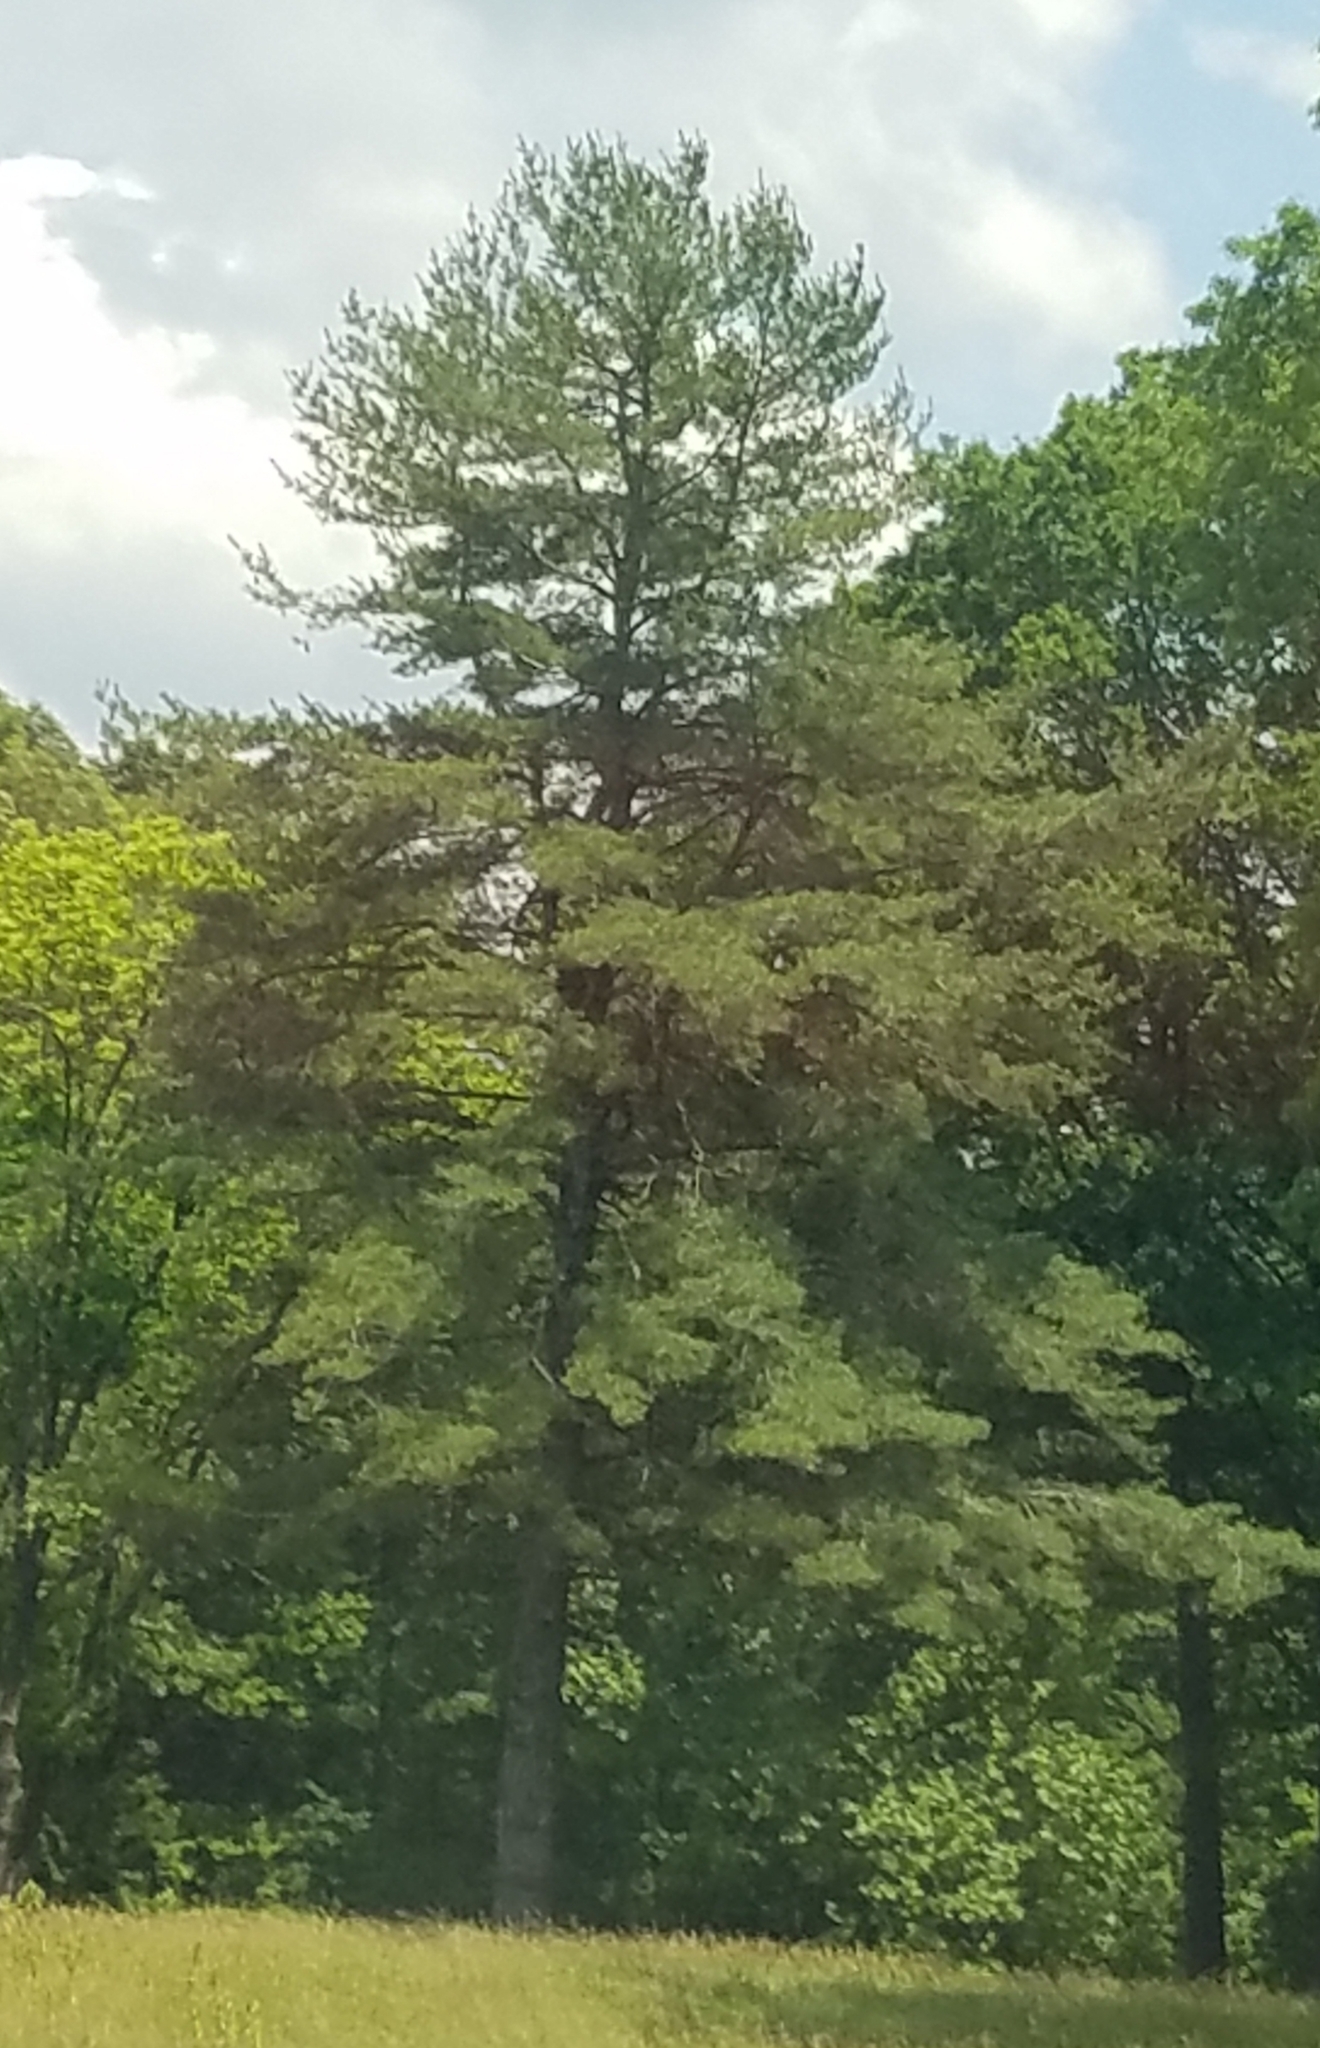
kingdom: Plantae
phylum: Tracheophyta
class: Pinopsida
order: Pinales
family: Pinaceae
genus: Pinus
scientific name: Pinus strobus
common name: Weymouth pine
